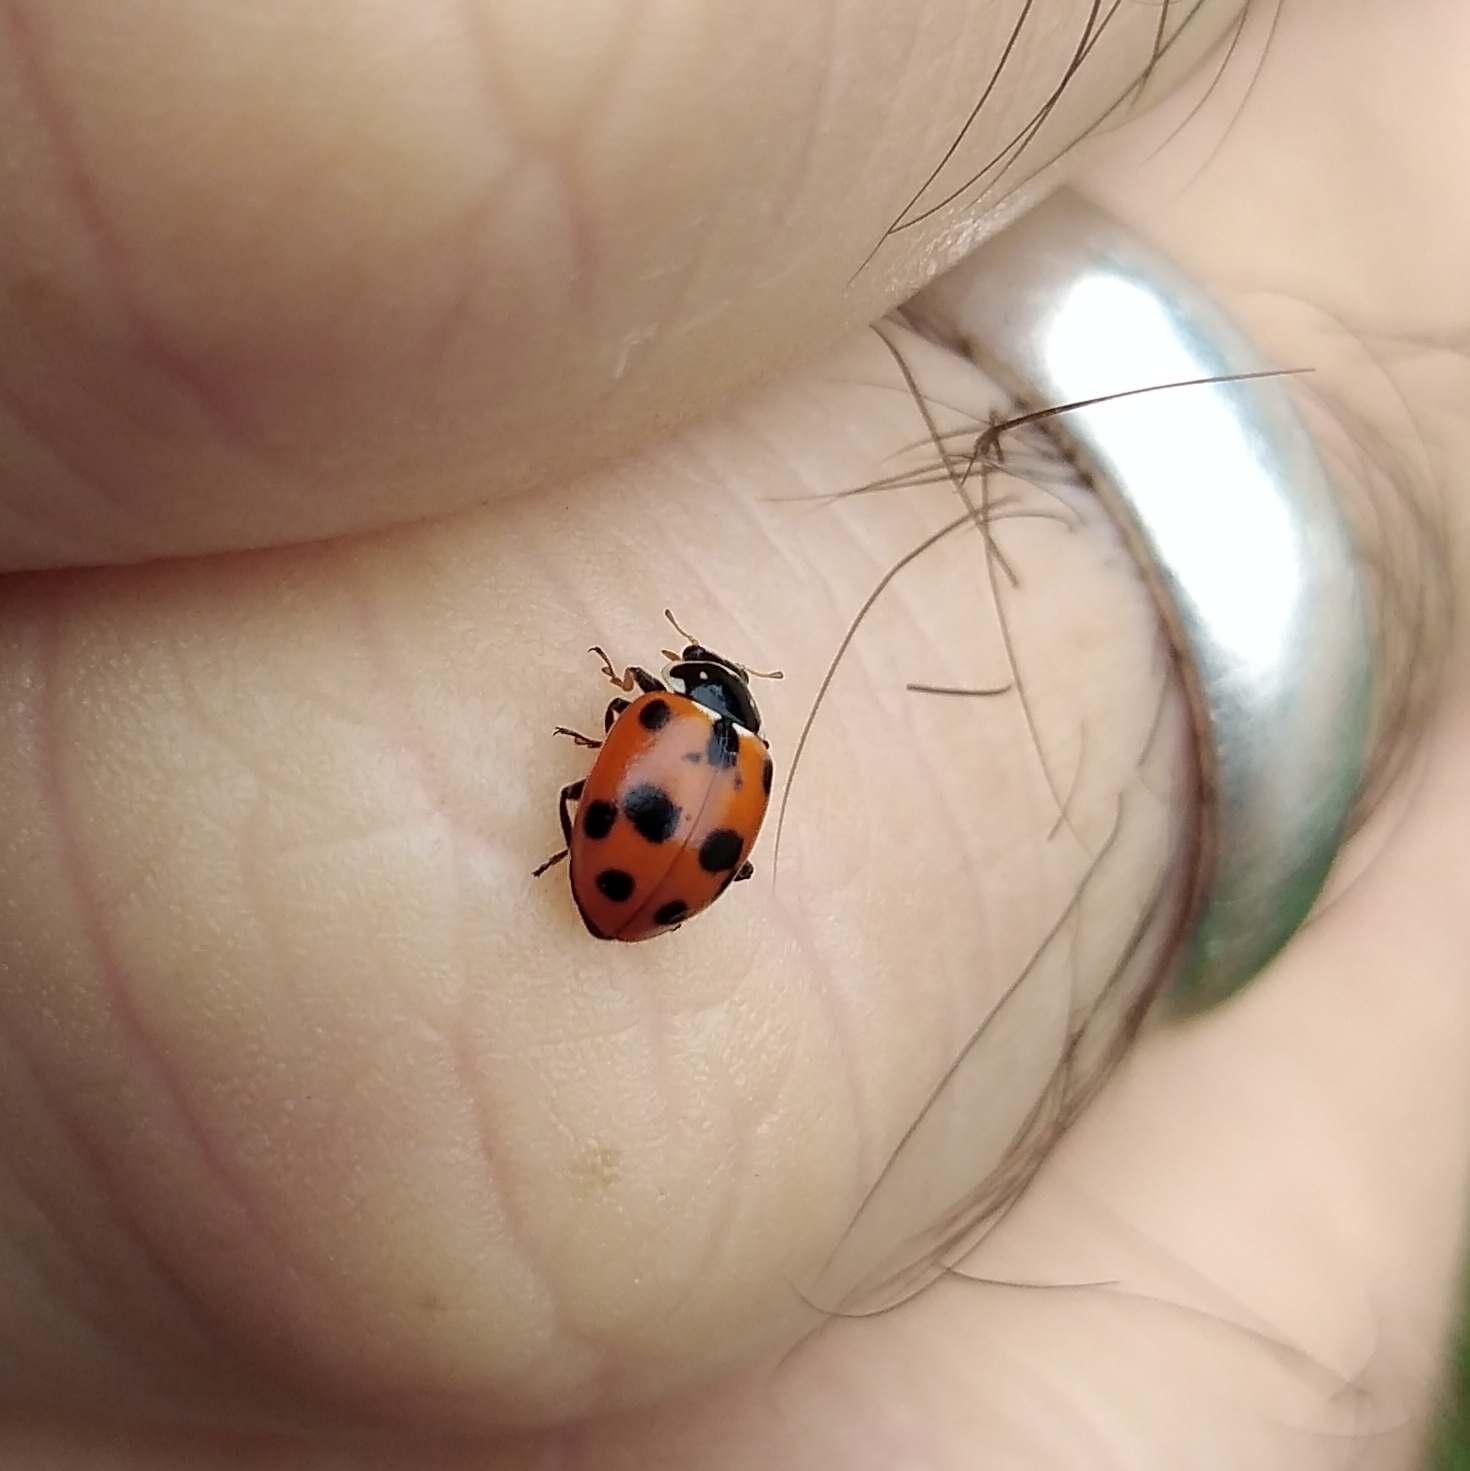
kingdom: Animalia
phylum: Arthropoda
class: Insecta
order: Coleoptera
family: Coccinellidae
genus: Hippodamia
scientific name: Hippodamia variegata
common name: Ladybird beetle
